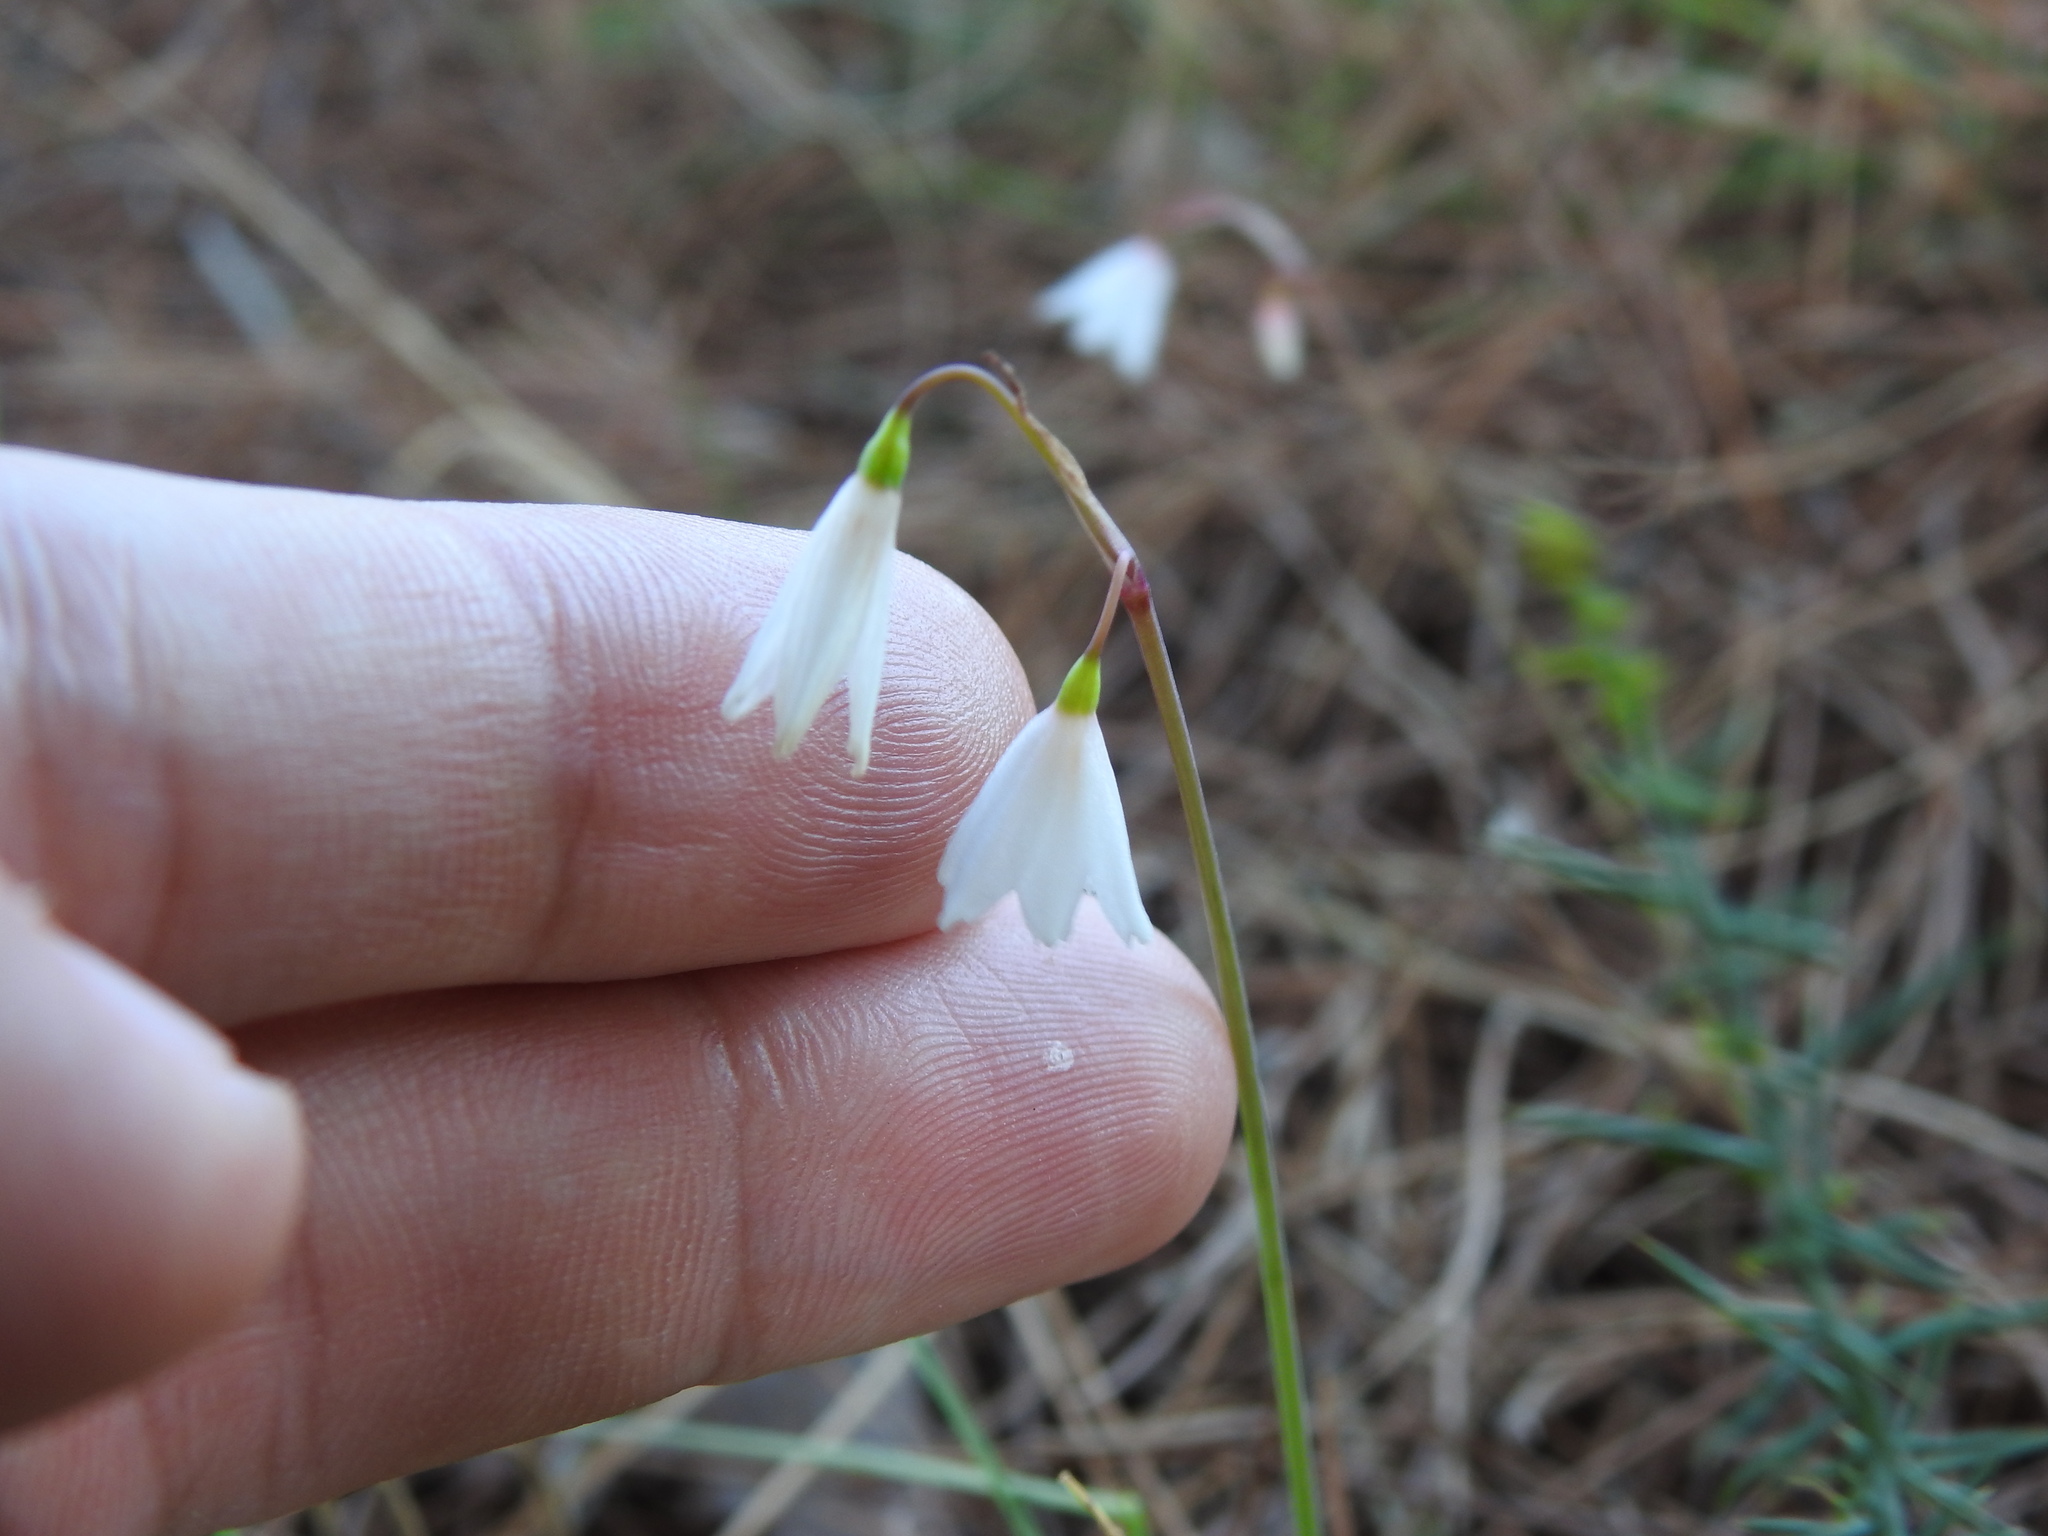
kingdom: Plantae
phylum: Tracheophyta
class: Liliopsida
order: Asparagales
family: Amaryllidaceae
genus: Acis
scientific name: Acis autumnalis
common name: Autumn snowflake
